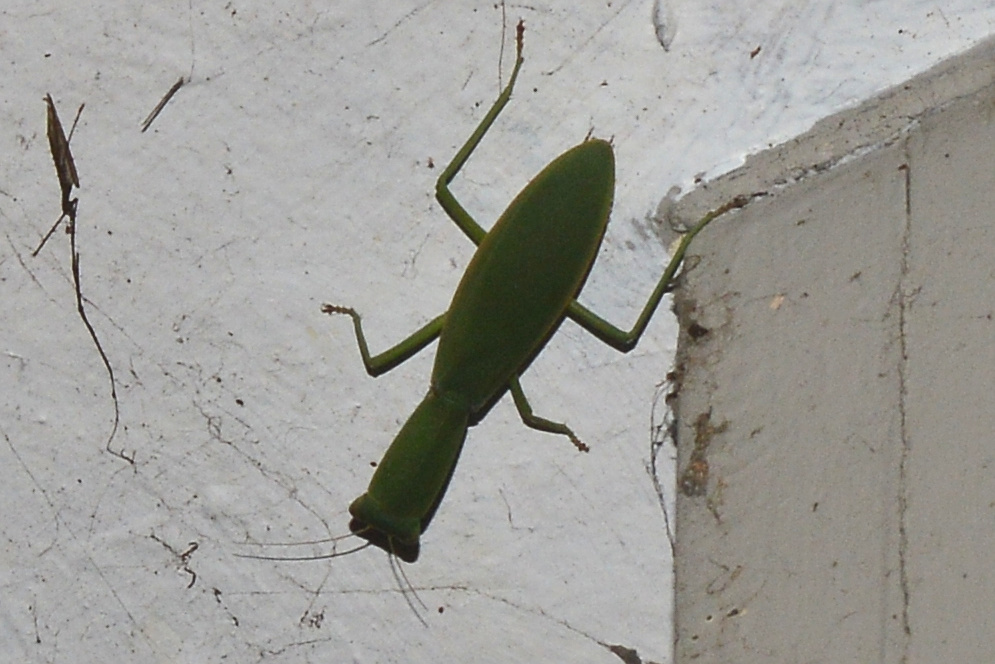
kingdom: Animalia
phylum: Arthropoda
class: Insecta
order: Mantodea
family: Mantidae
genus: Orthodera
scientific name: Orthodera novaezealandiae
